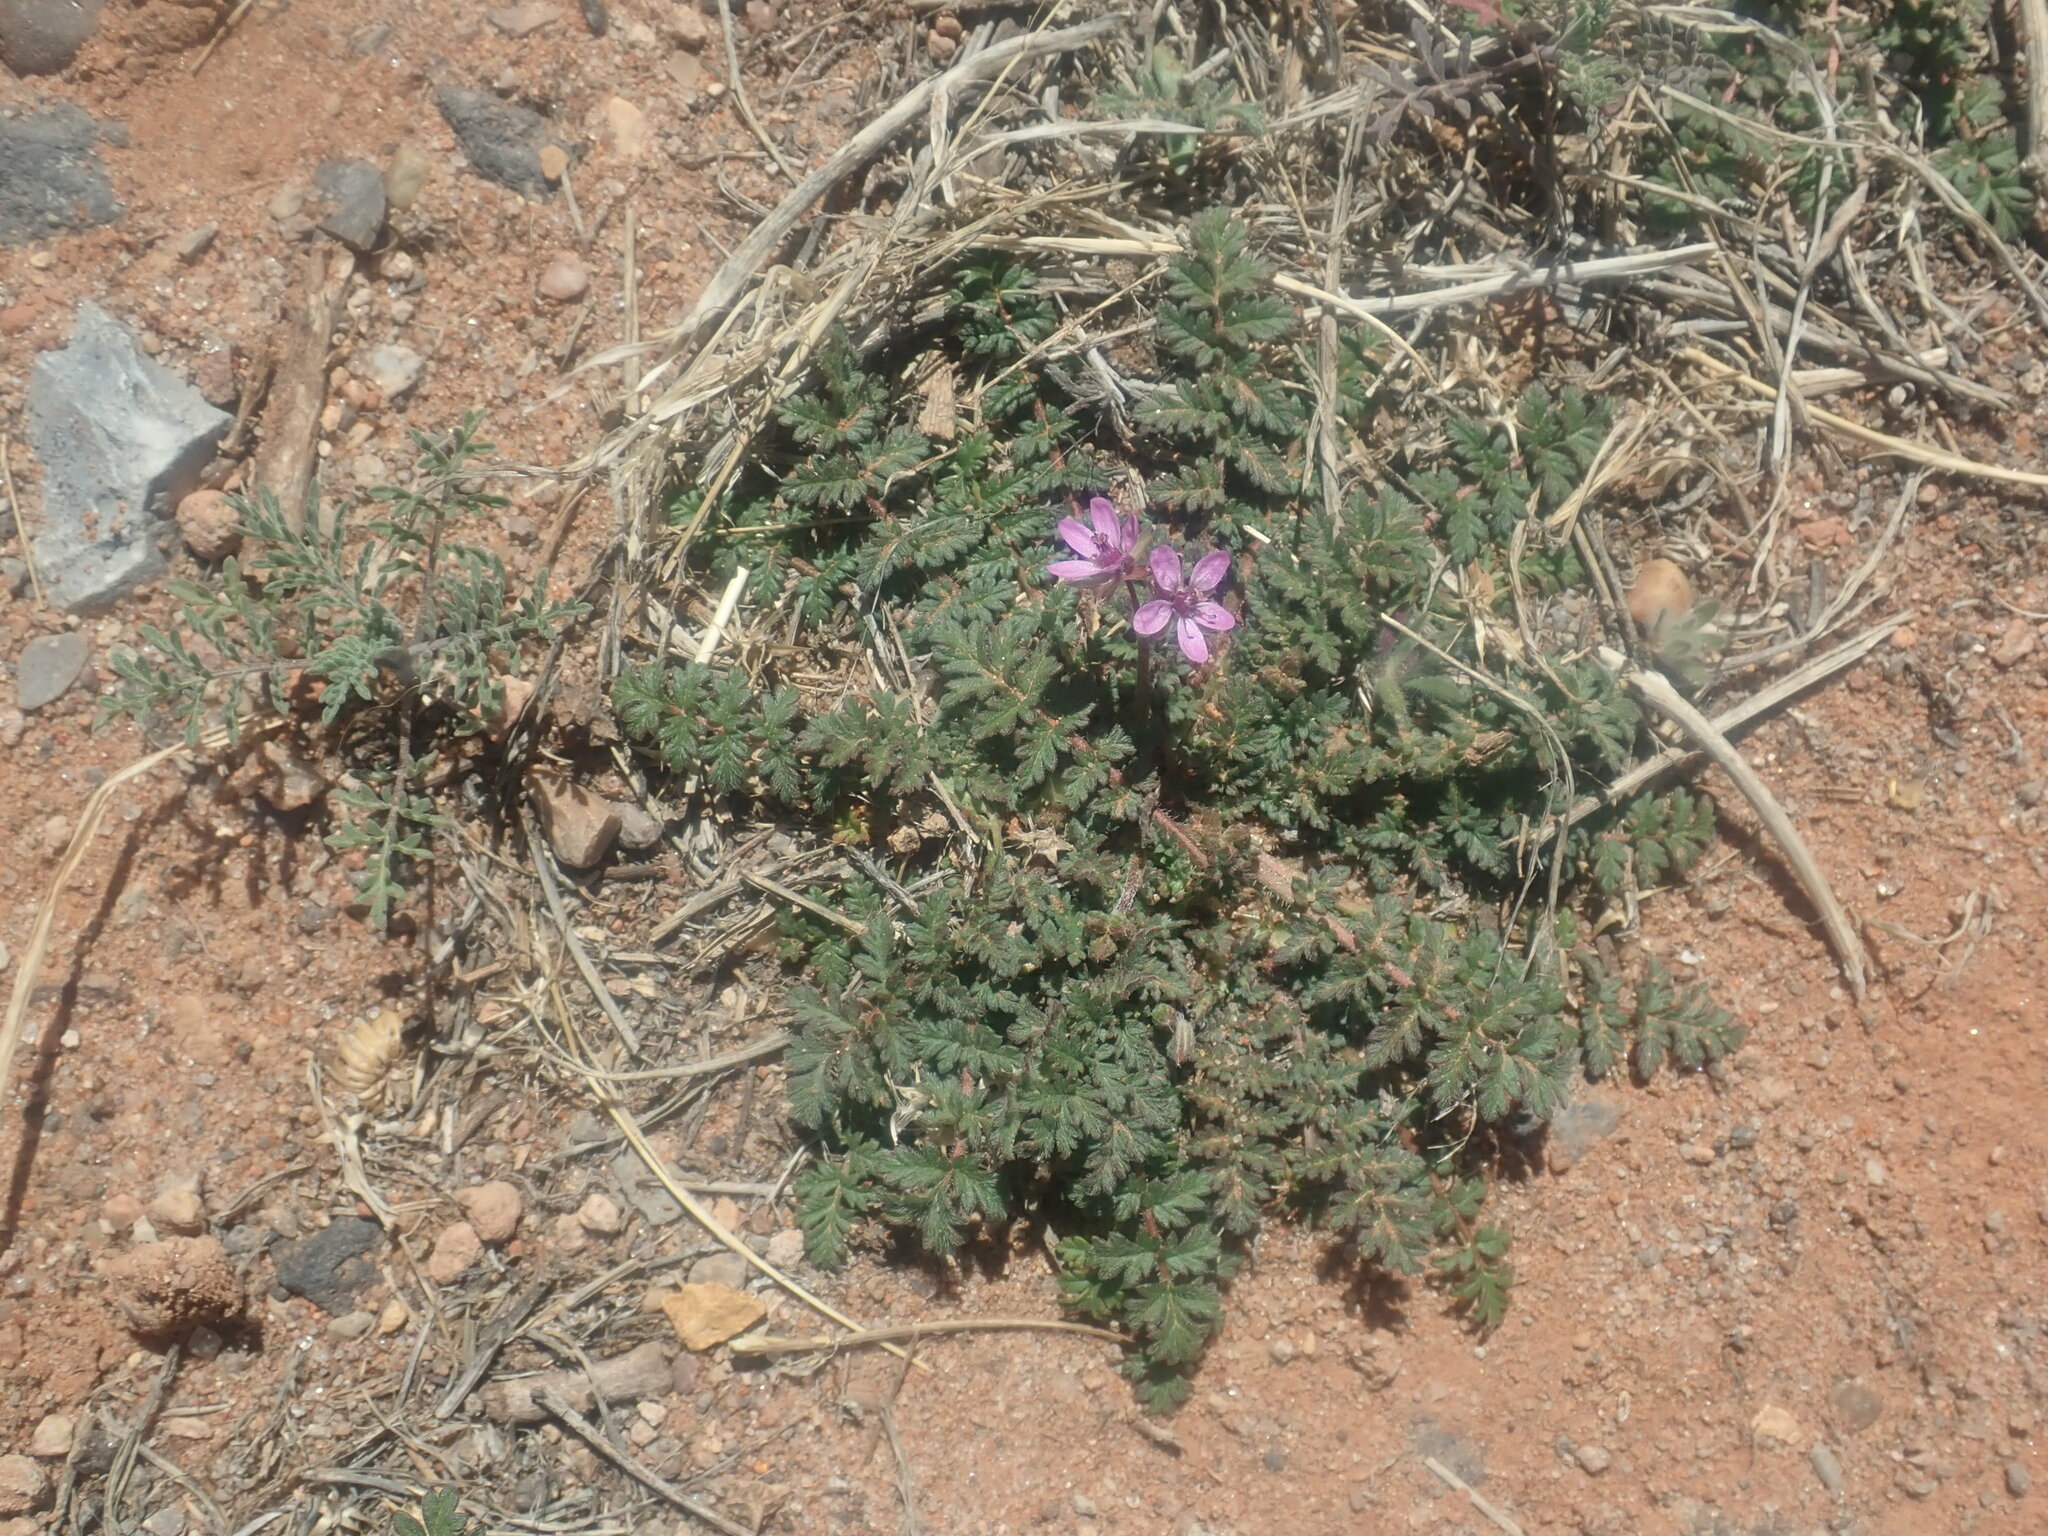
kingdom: Plantae
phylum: Tracheophyta
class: Magnoliopsida
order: Geraniales
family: Geraniaceae
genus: Erodium
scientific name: Erodium cicutarium
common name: Common stork's-bill
